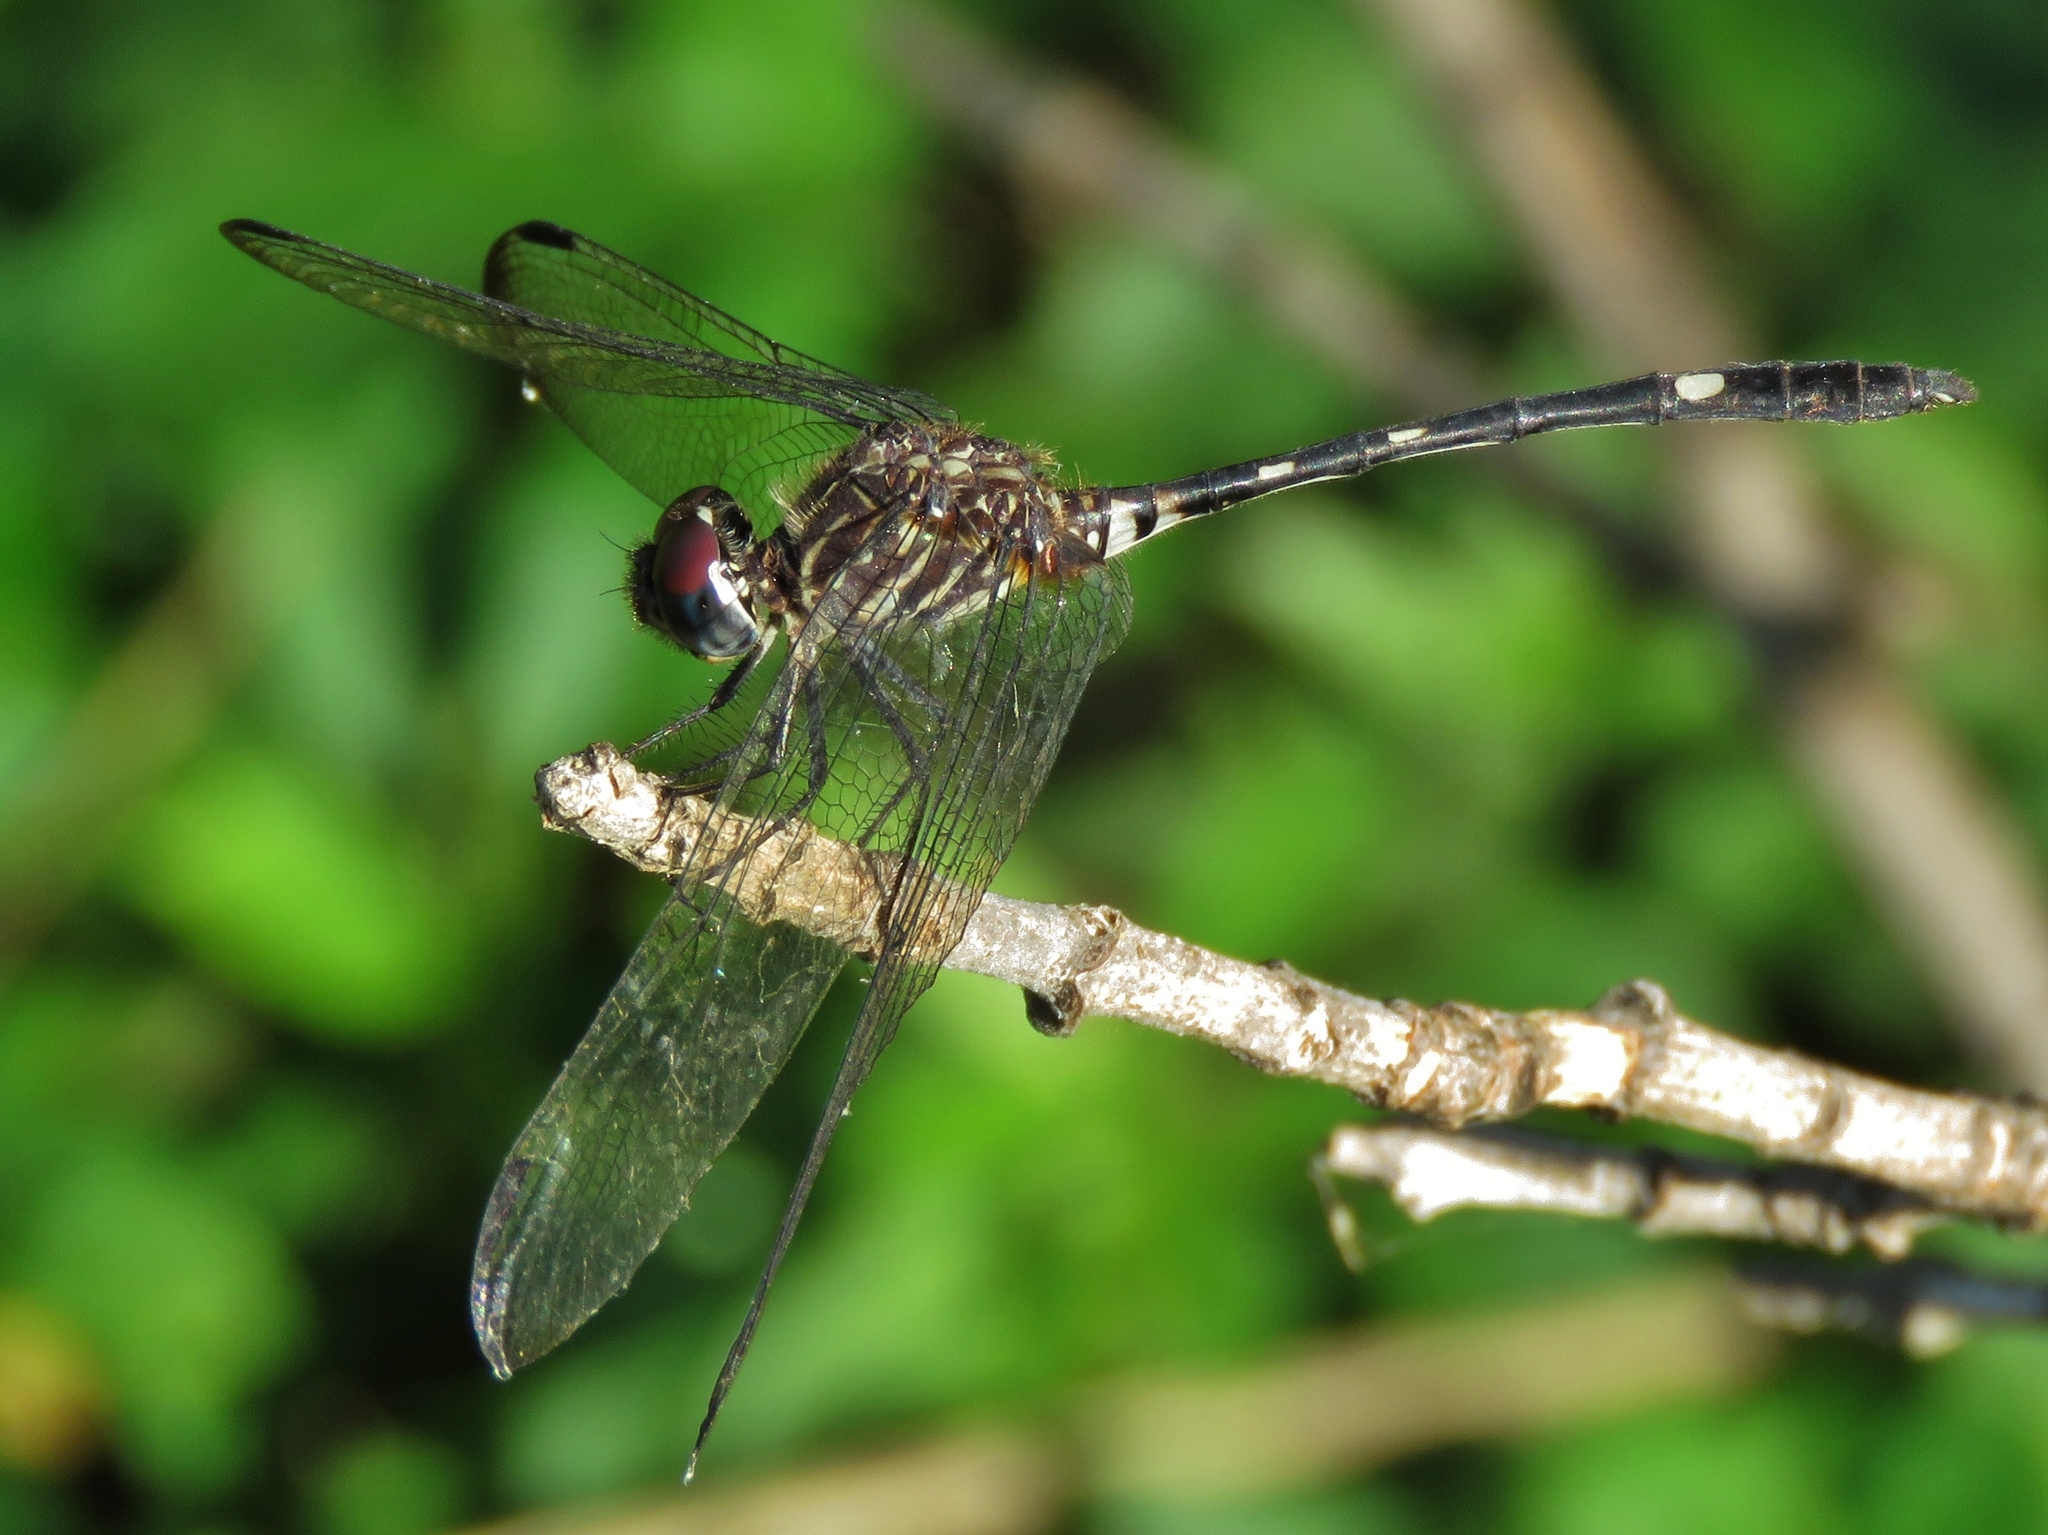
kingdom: Animalia
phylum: Arthropoda
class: Insecta
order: Odonata
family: Libellulidae
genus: Dythemis
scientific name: Dythemis velox
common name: Swift setwing
